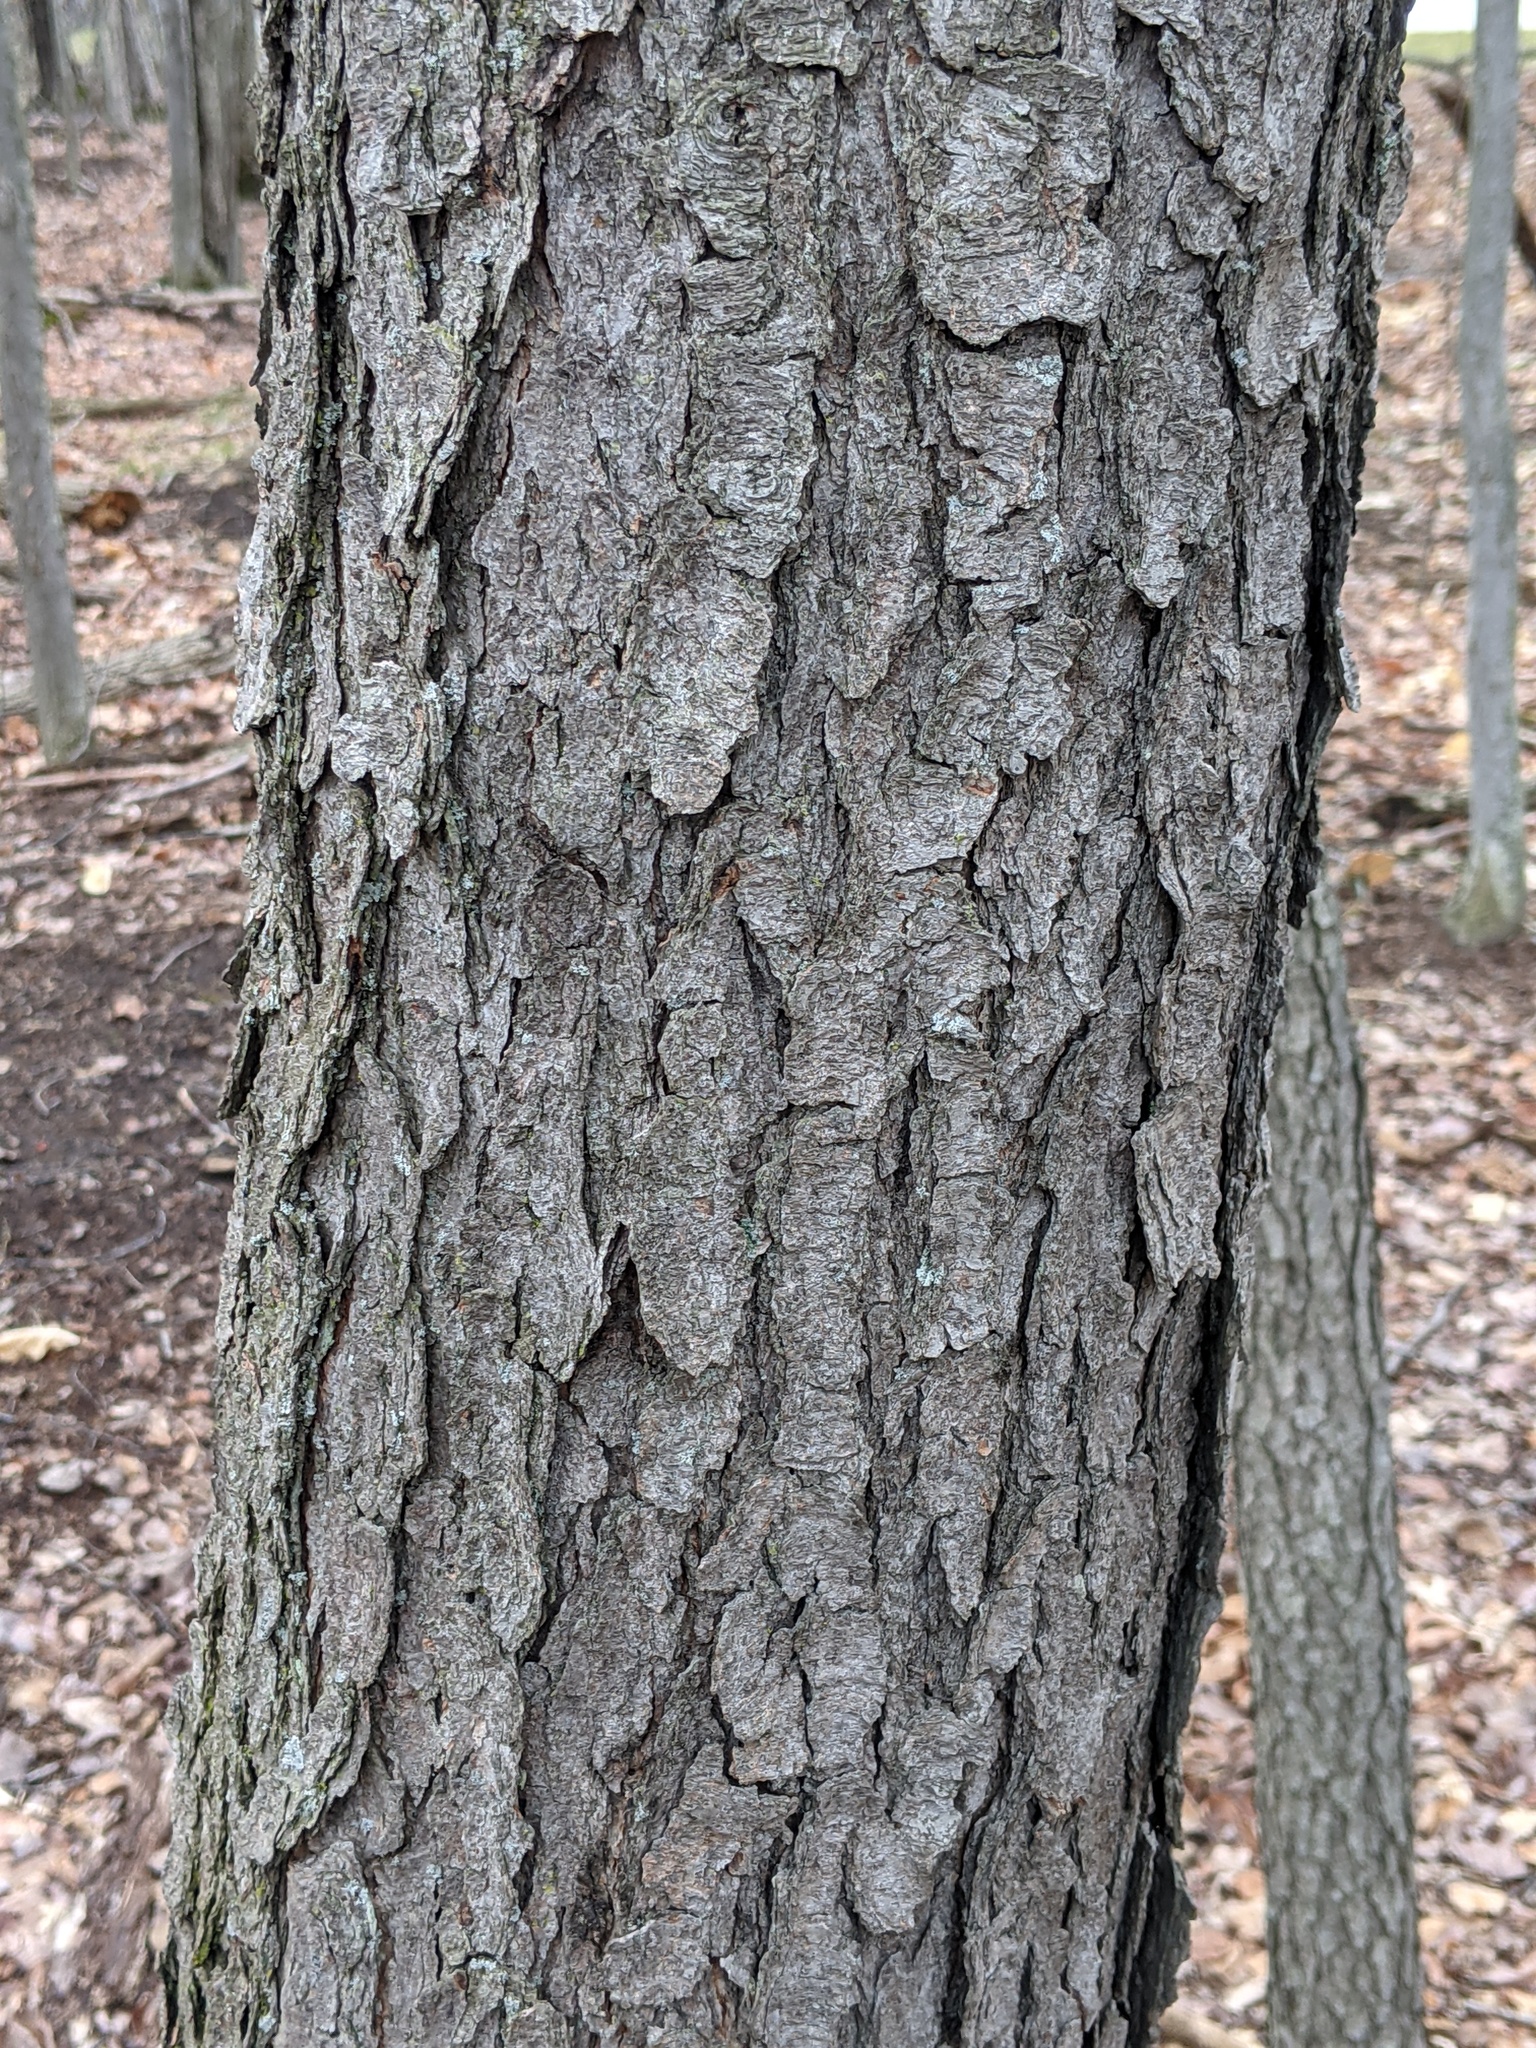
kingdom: Plantae
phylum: Tracheophyta
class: Magnoliopsida
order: Rosales
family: Rosaceae
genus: Prunus
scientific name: Prunus serotina
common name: Black cherry
